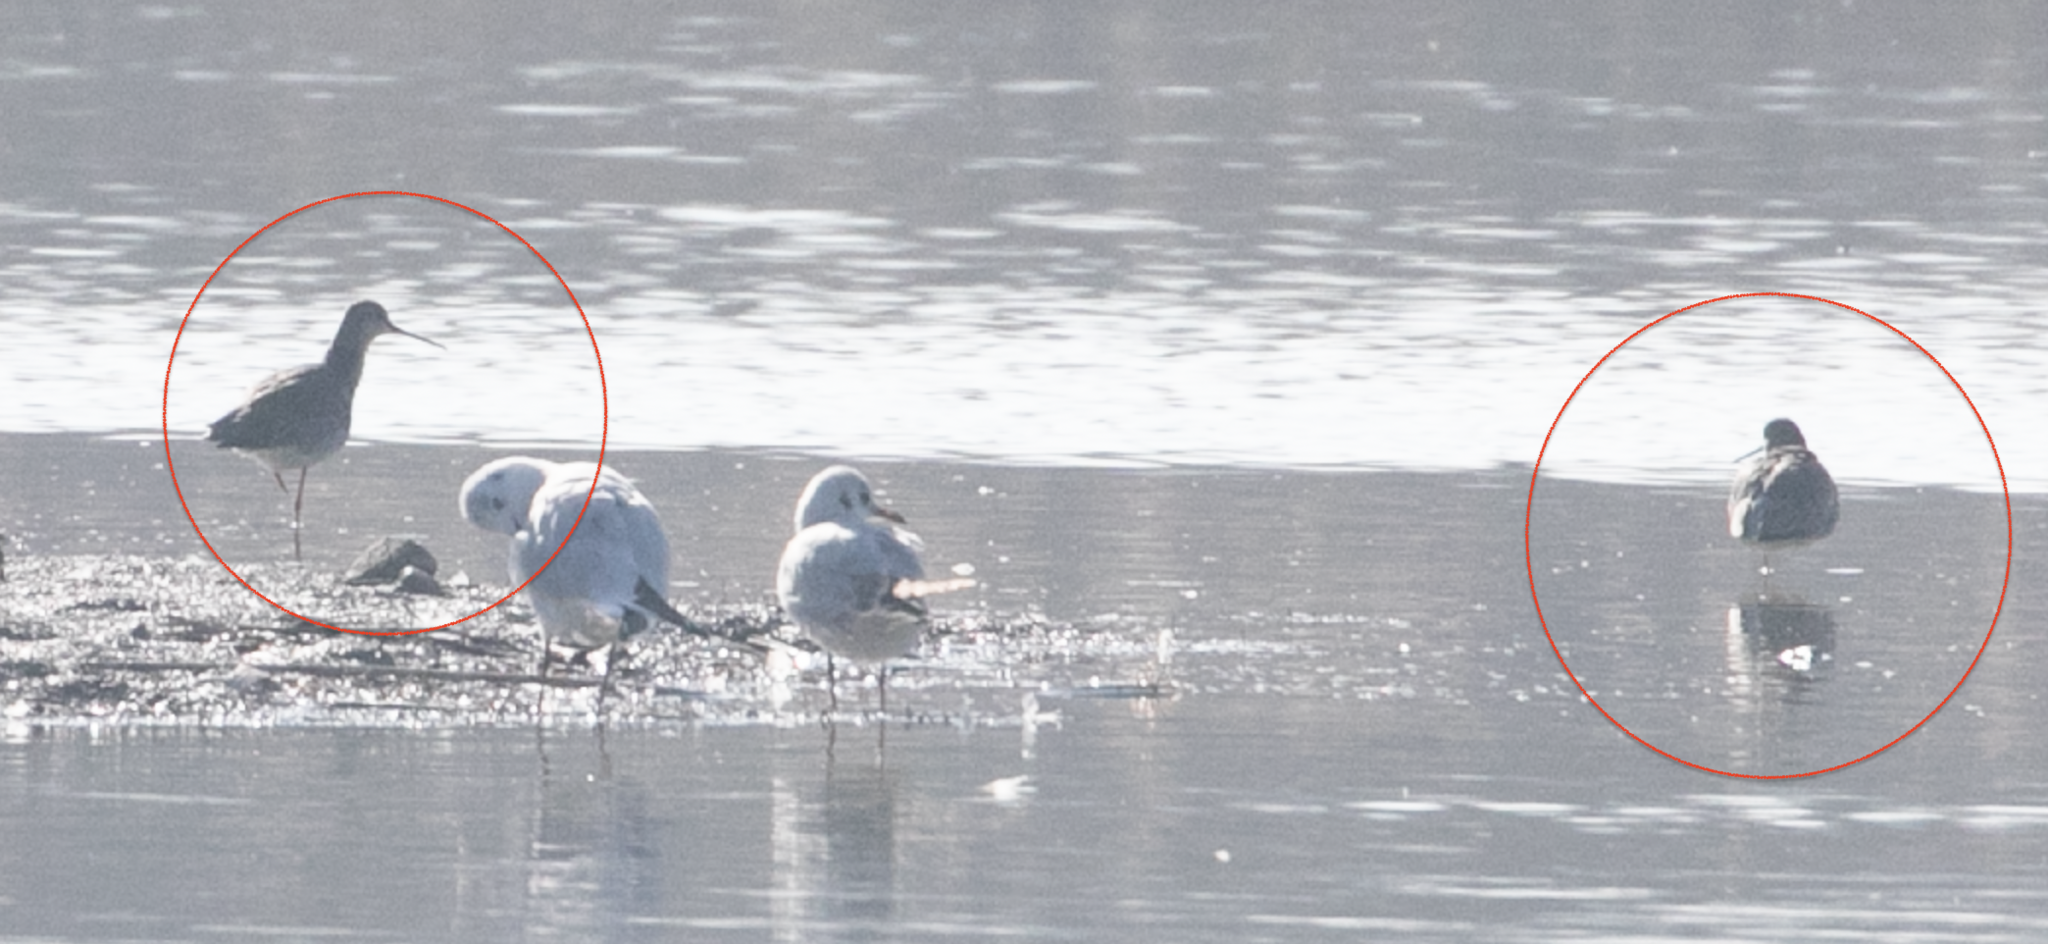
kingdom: Animalia
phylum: Chordata
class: Aves
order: Charadriiformes
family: Scolopacidae
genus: Tringa
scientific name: Tringa erythropus
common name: Spotted redshank
